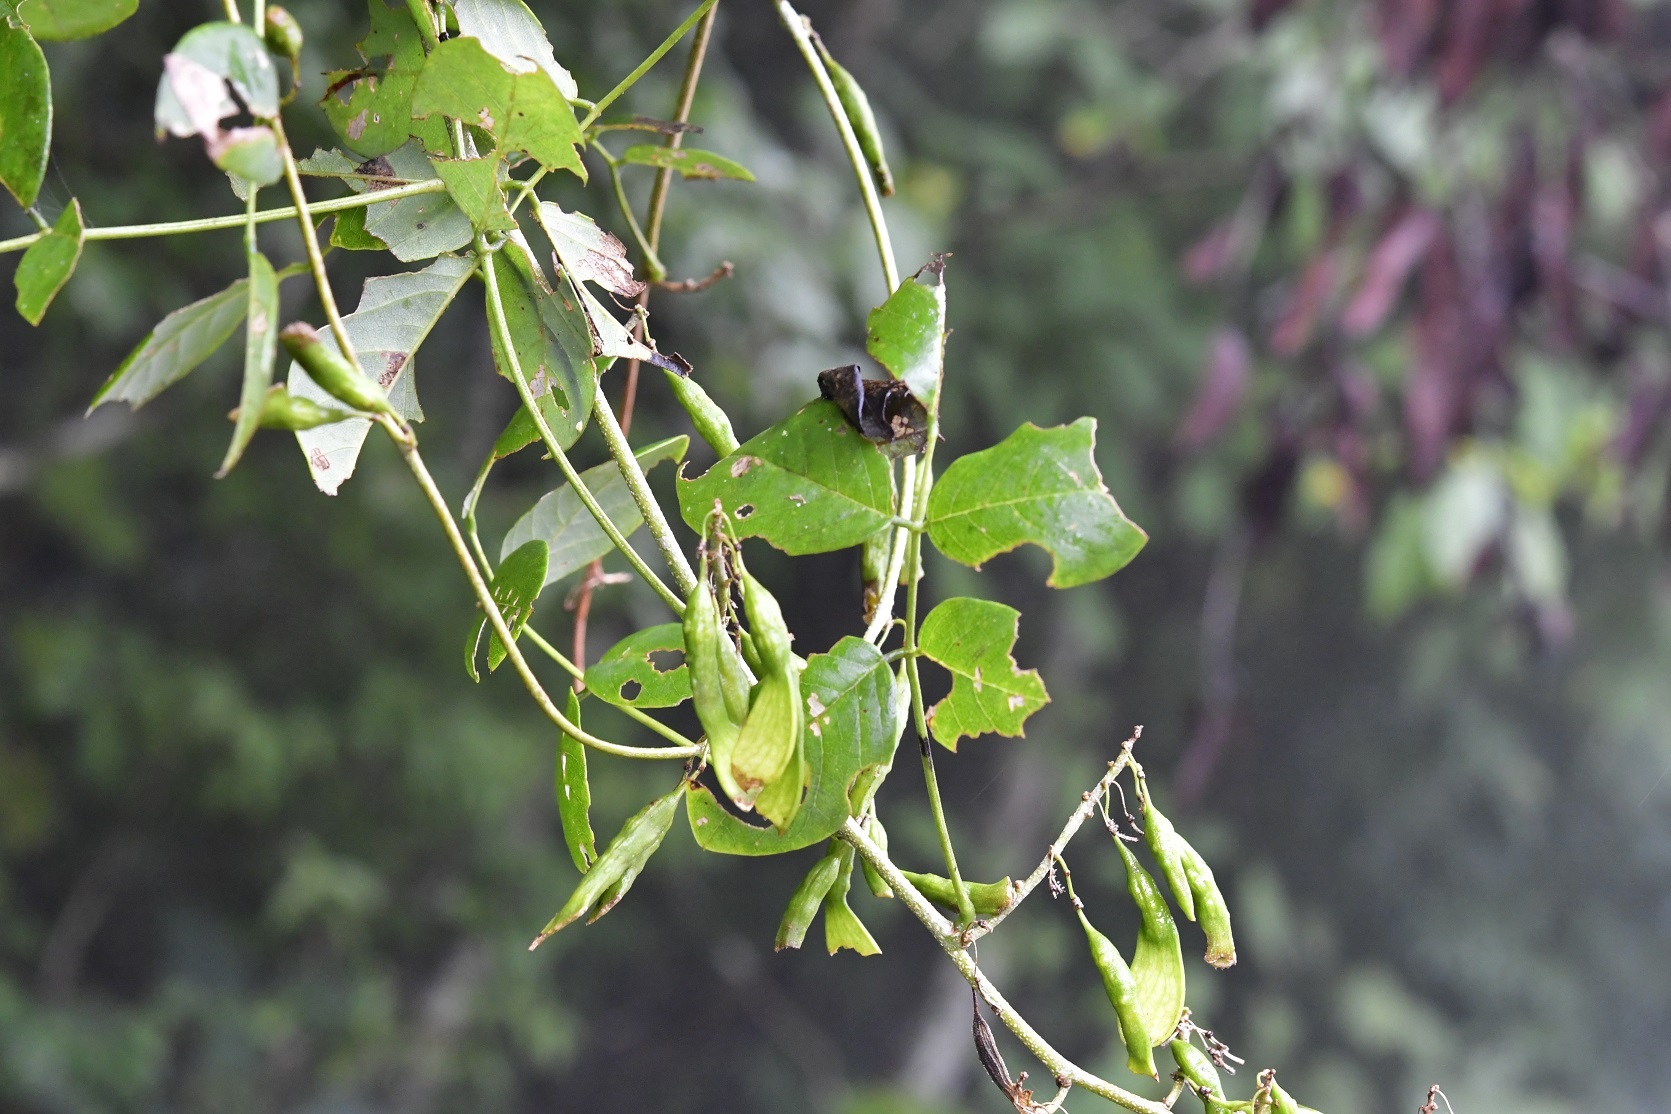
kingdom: Plantae
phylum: Tracheophyta
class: Magnoliopsida
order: Fabales
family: Fabaceae
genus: Nissolia
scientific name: Nissolia fruticosa
